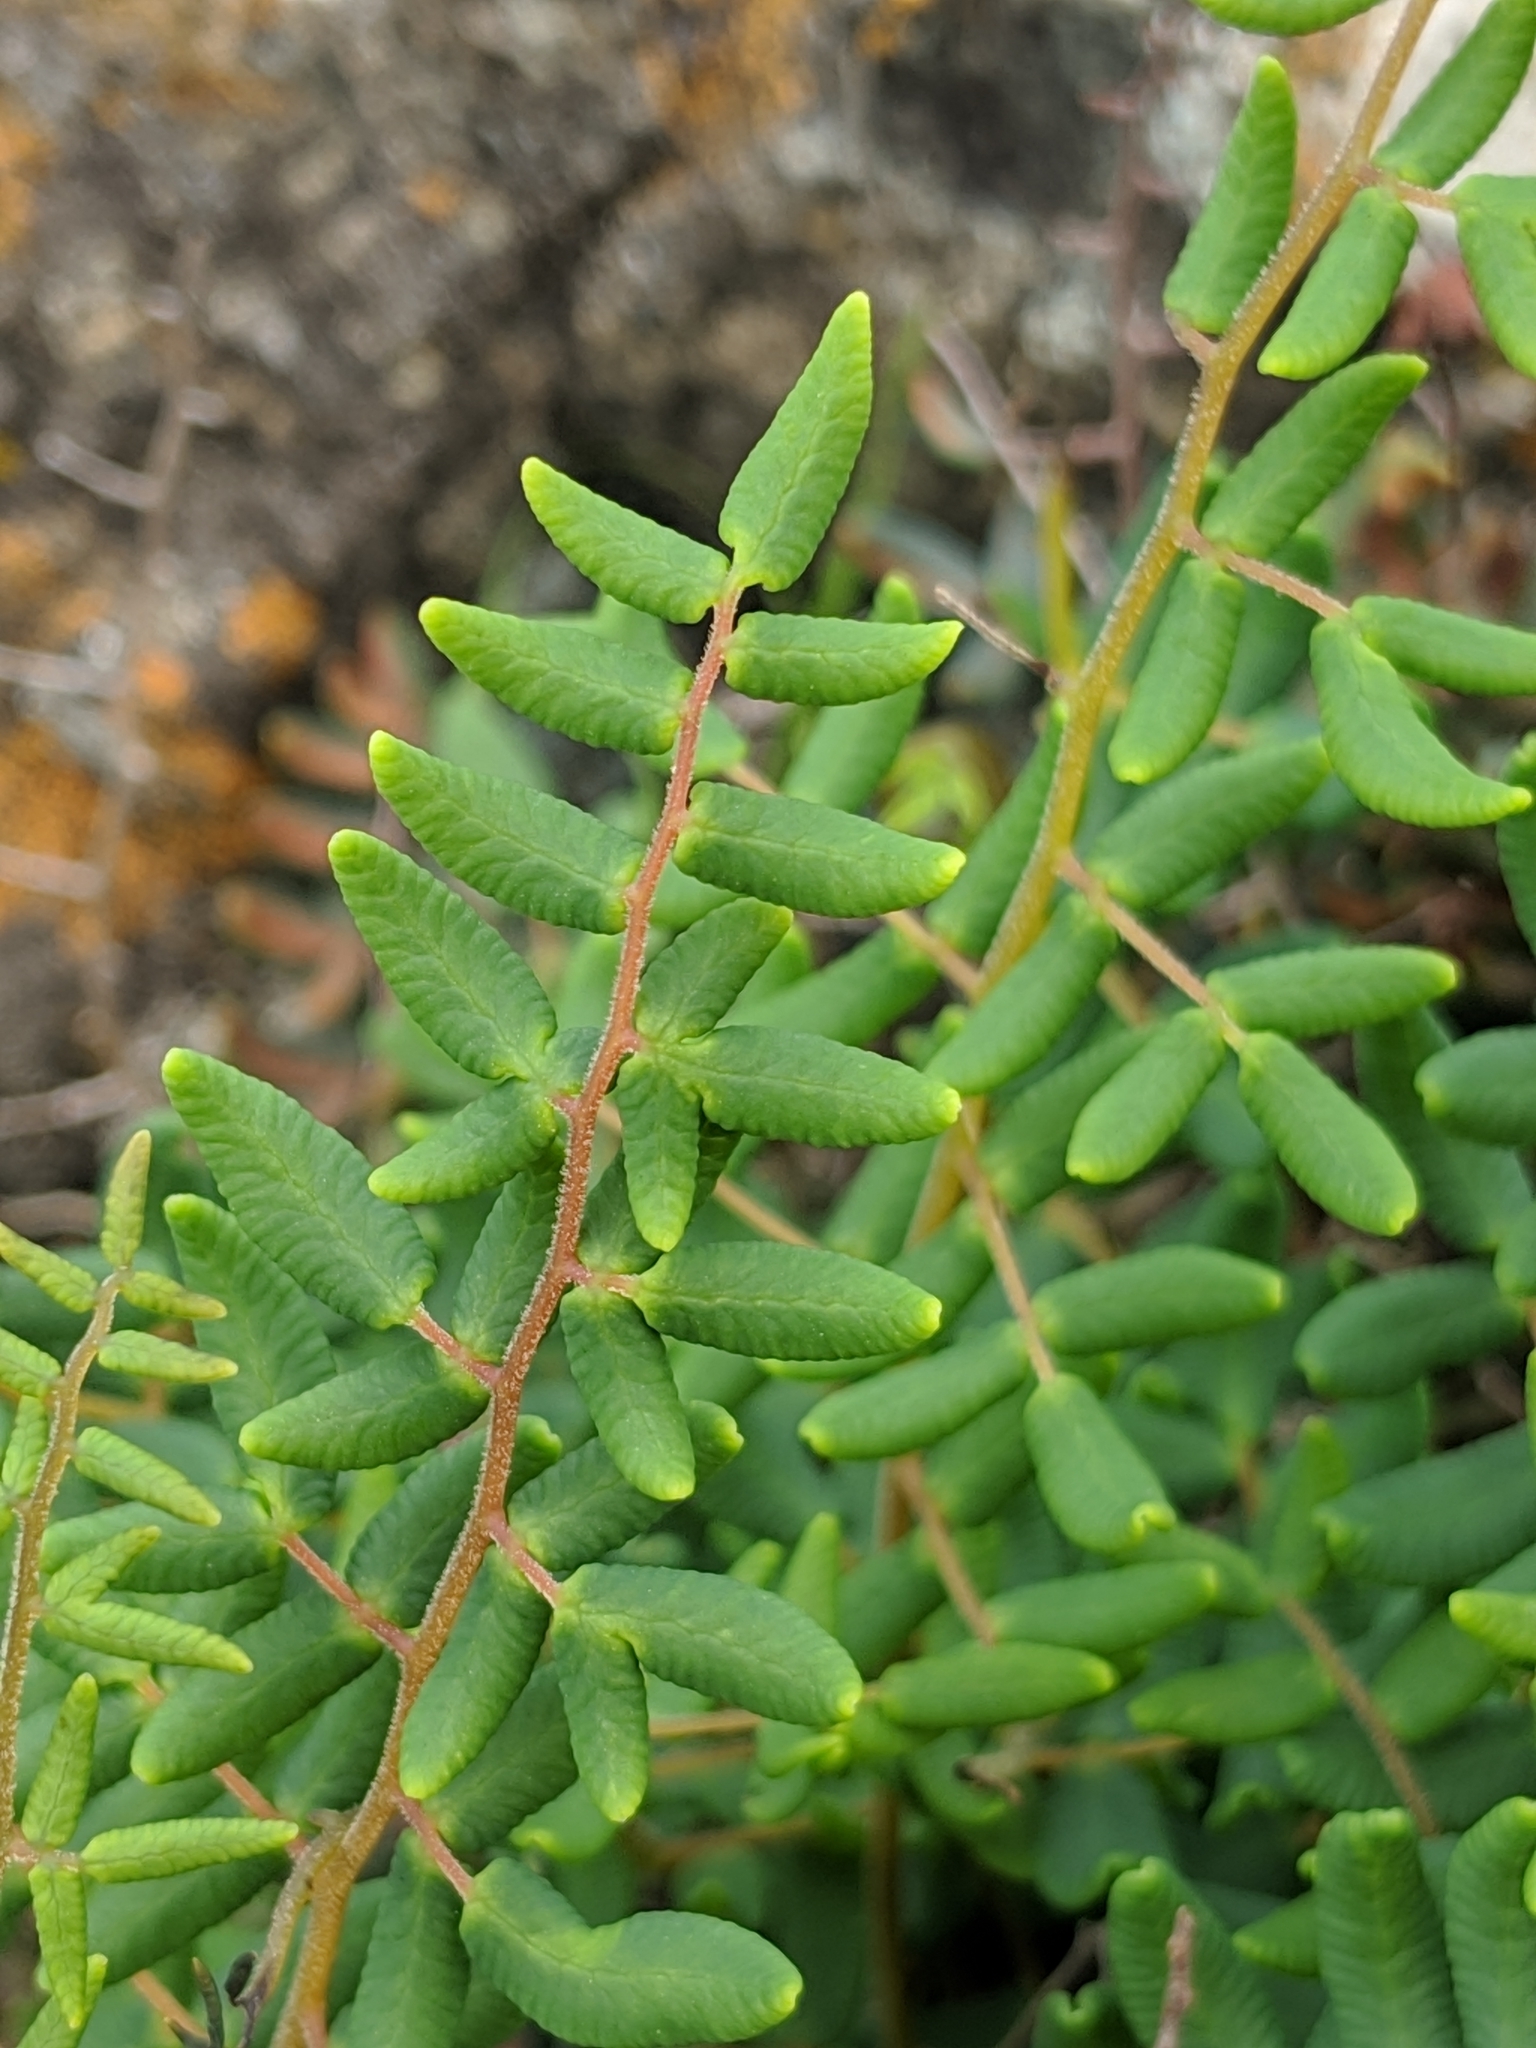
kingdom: Plantae
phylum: Tracheophyta
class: Polypodiopsida
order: Polypodiales
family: Pteridaceae
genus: Pellaea
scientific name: Pellaea andromedifolia
